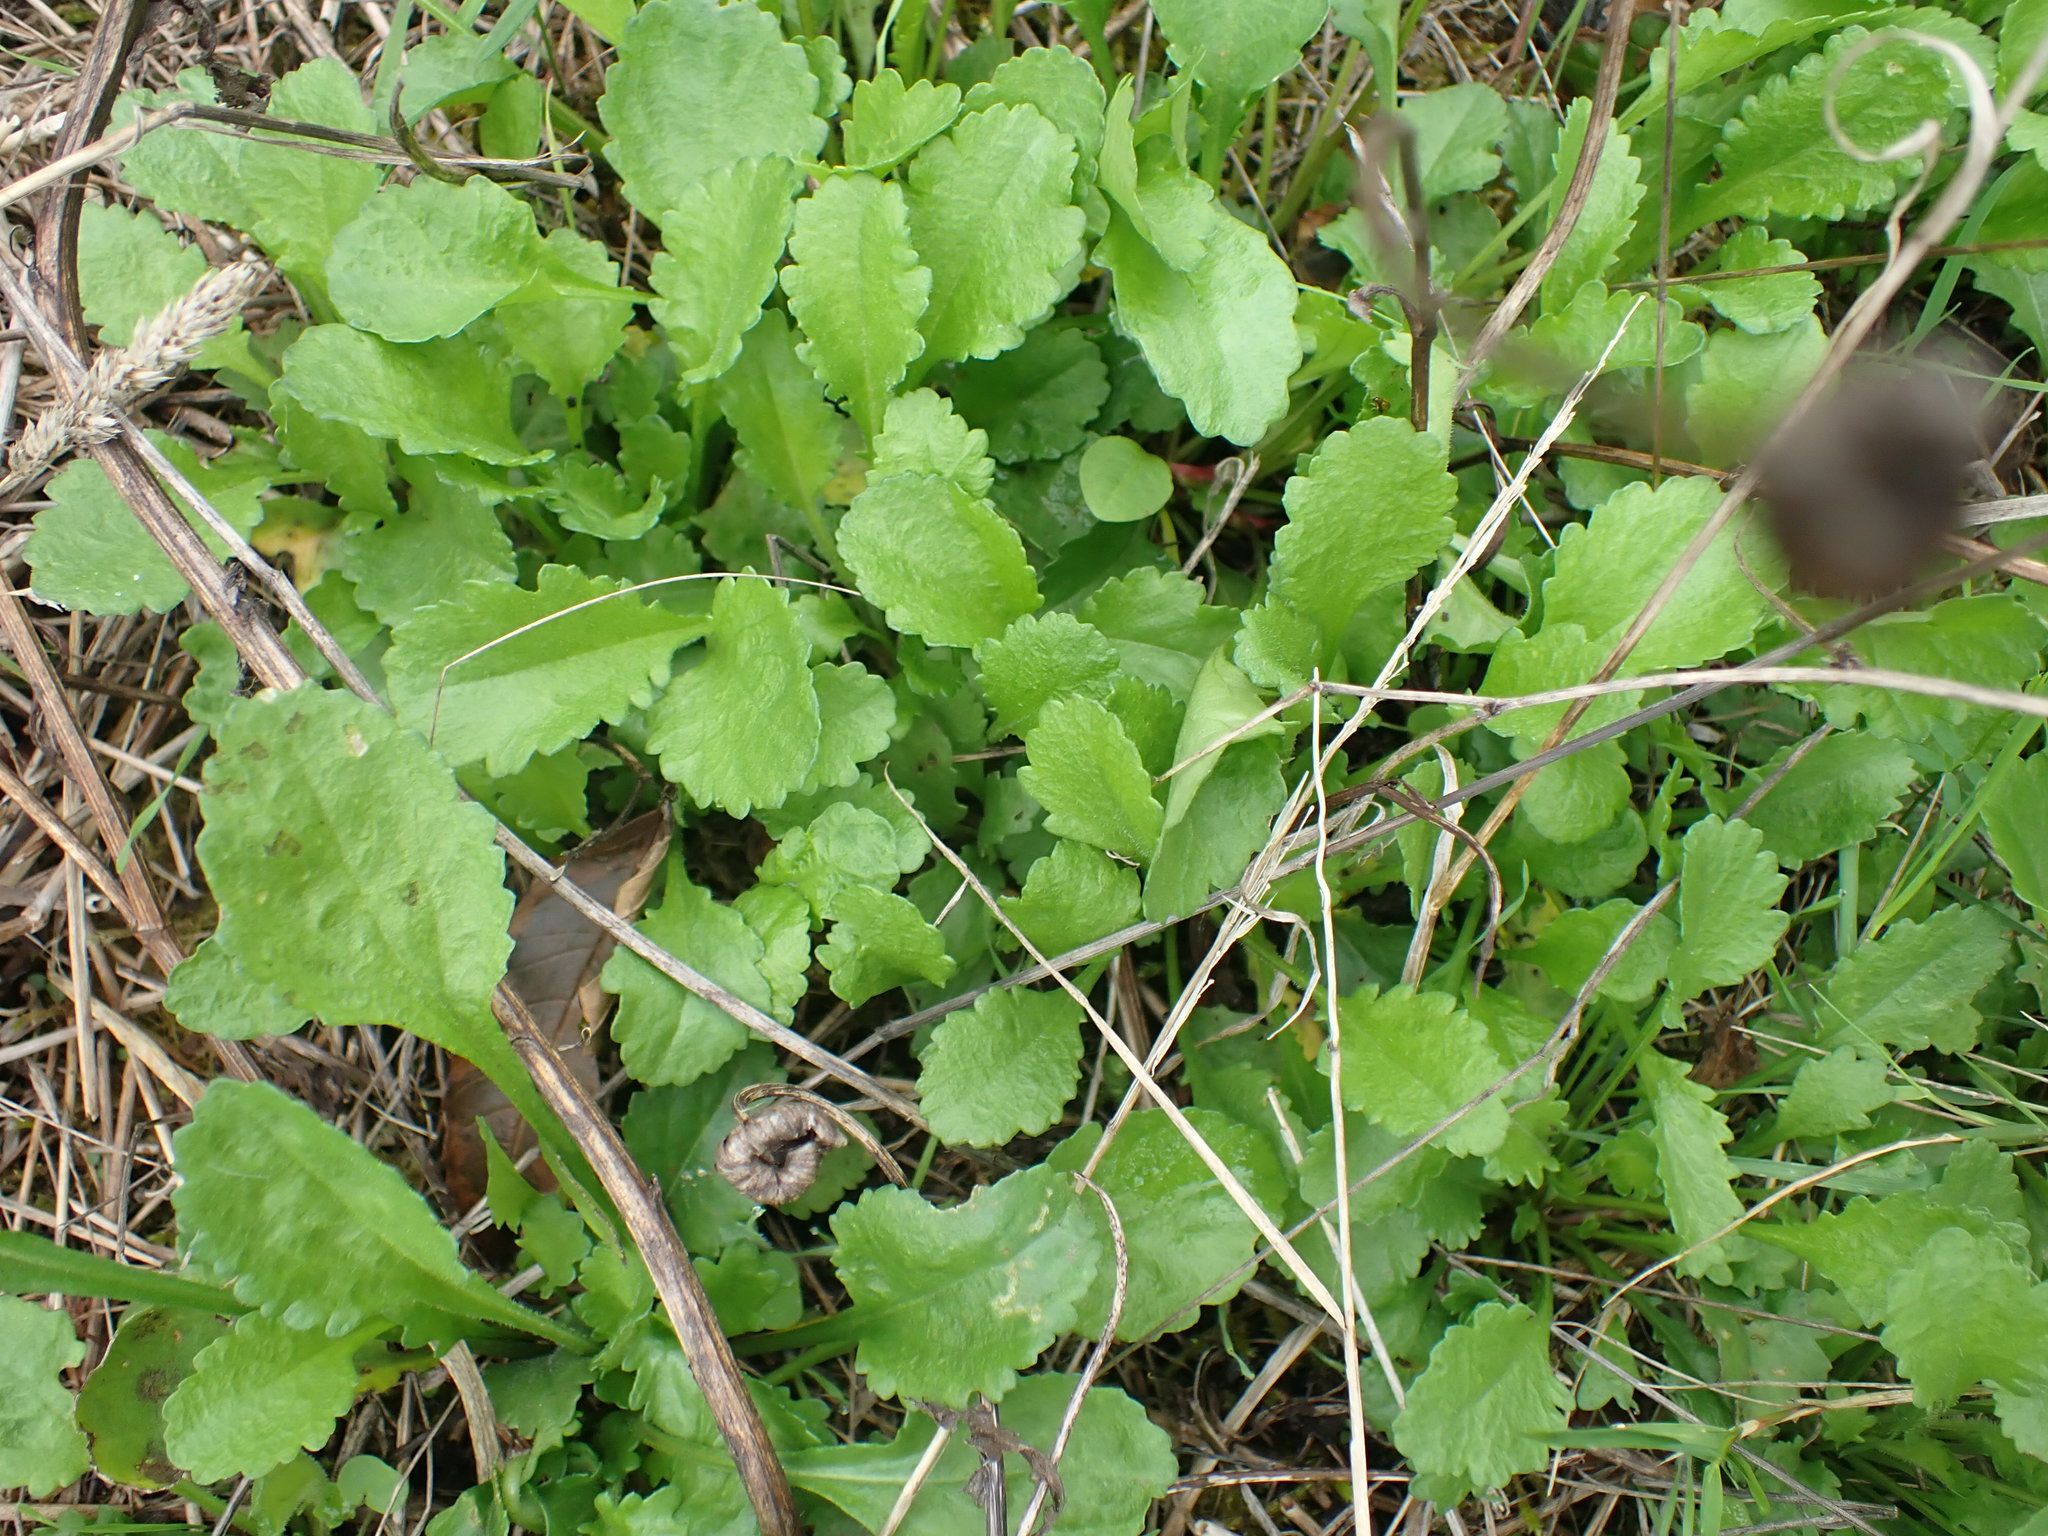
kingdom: Plantae
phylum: Tracheophyta
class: Magnoliopsida
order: Asterales
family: Asteraceae
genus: Leucanthemum
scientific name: Leucanthemum vulgare
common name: Oxeye daisy
